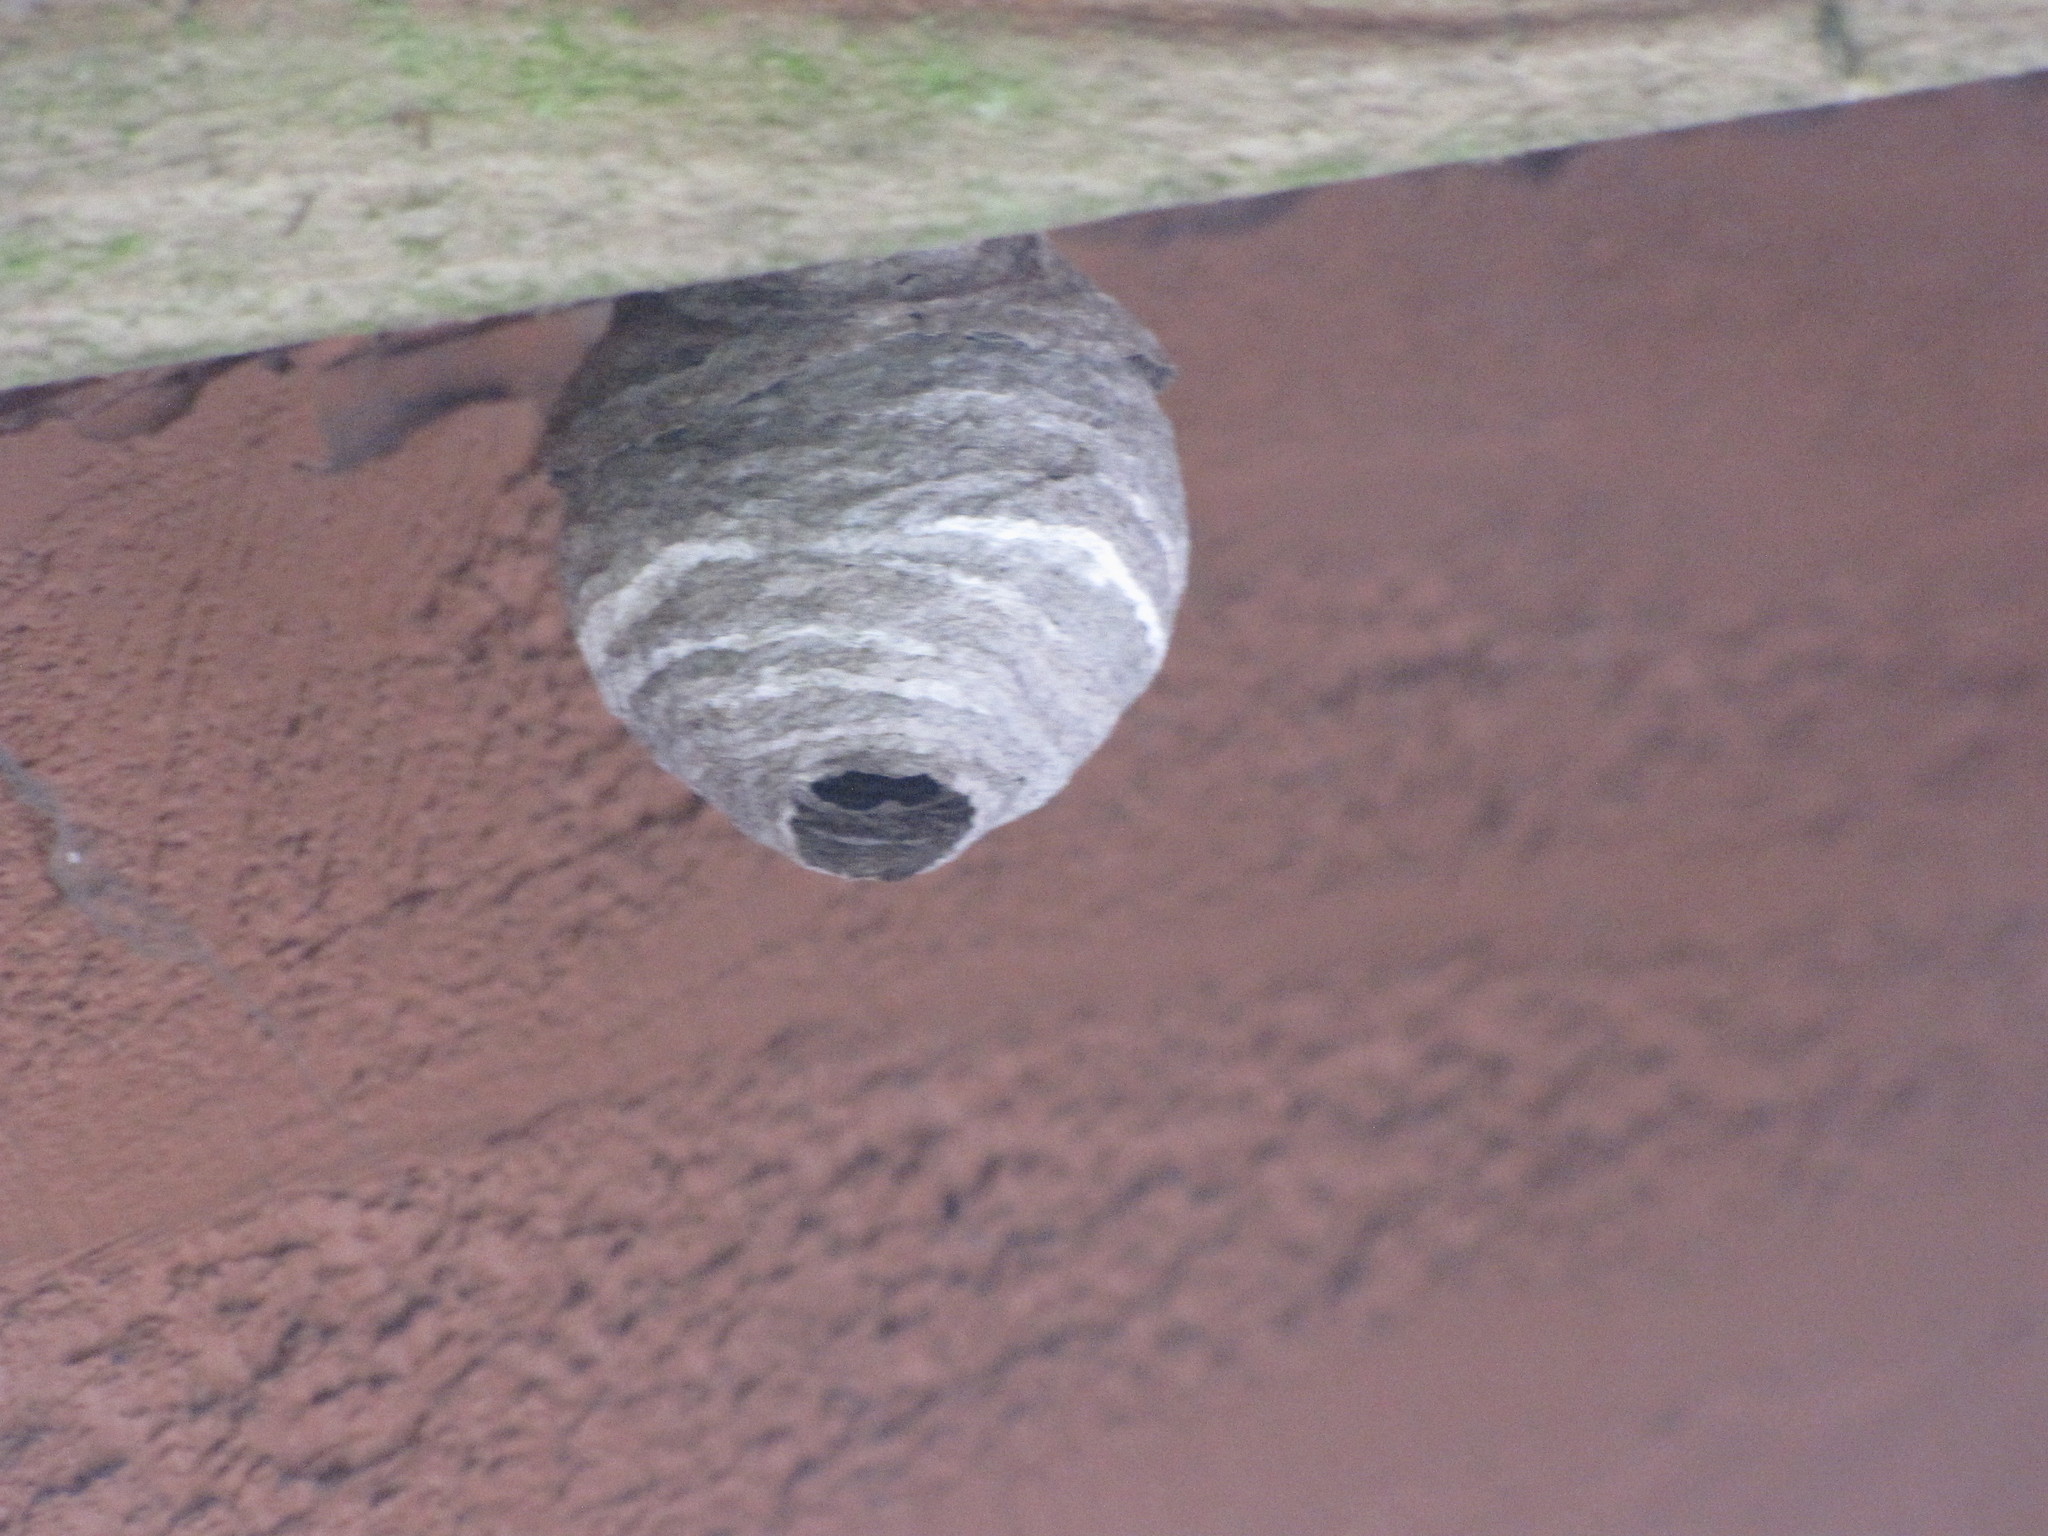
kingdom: Animalia
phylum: Arthropoda
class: Insecta
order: Hymenoptera
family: Vespidae
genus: Dolichovespula
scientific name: Dolichovespula
